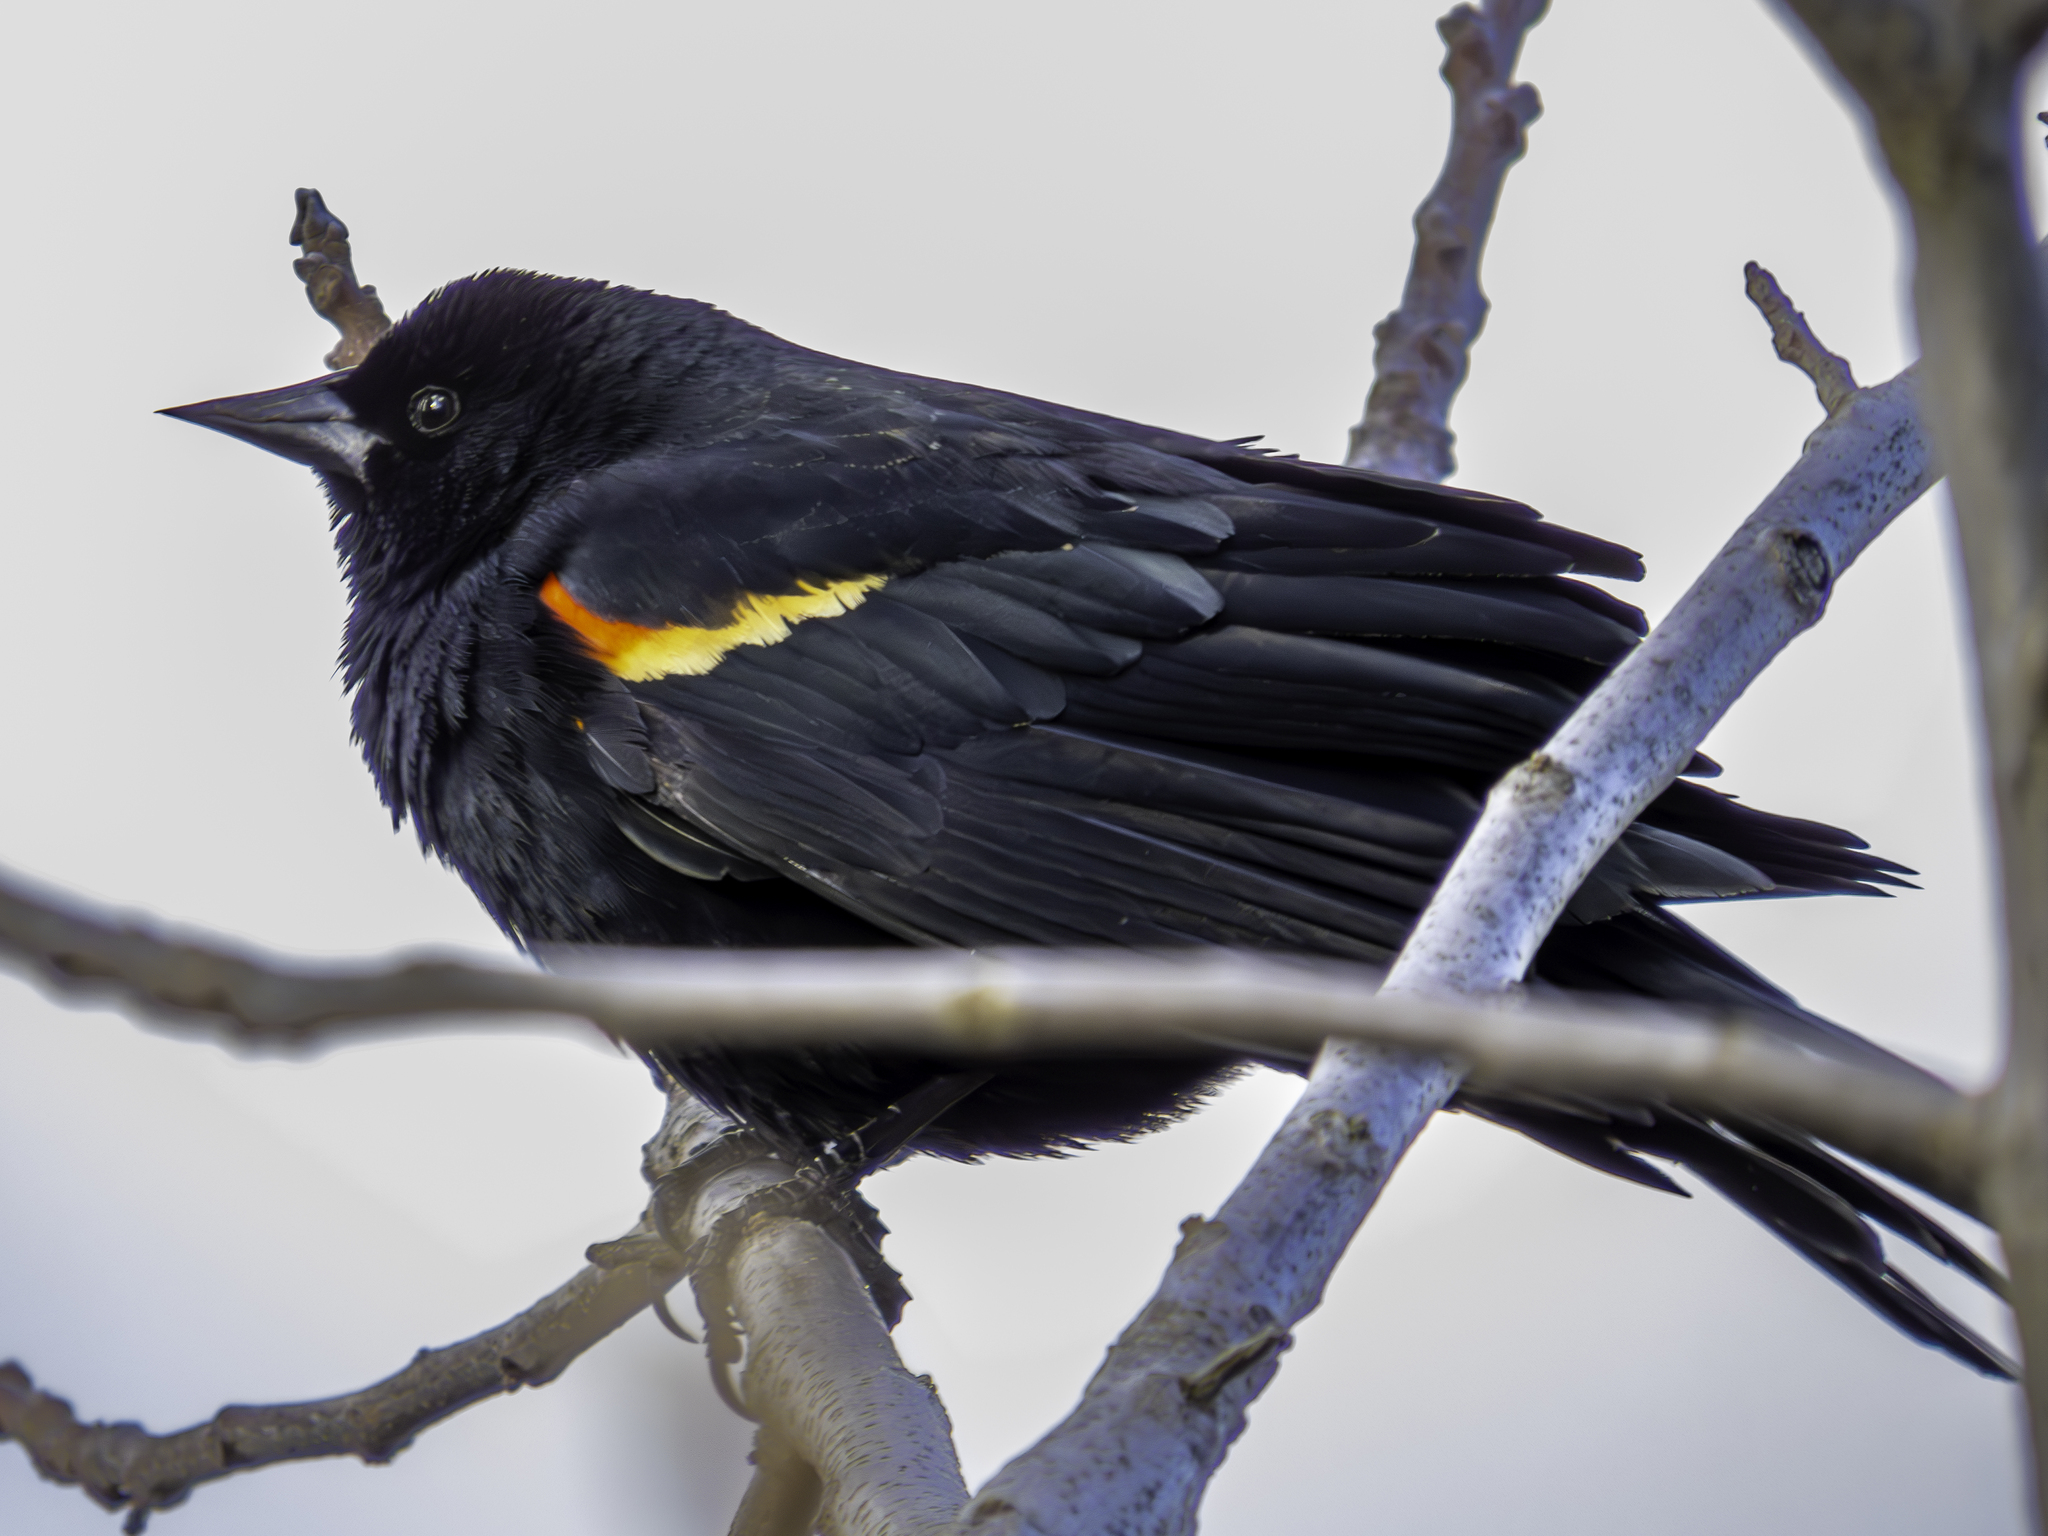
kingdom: Animalia
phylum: Chordata
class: Aves
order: Passeriformes
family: Icteridae
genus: Agelaius
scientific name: Agelaius phoeniceus
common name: Red-winged blackbird
